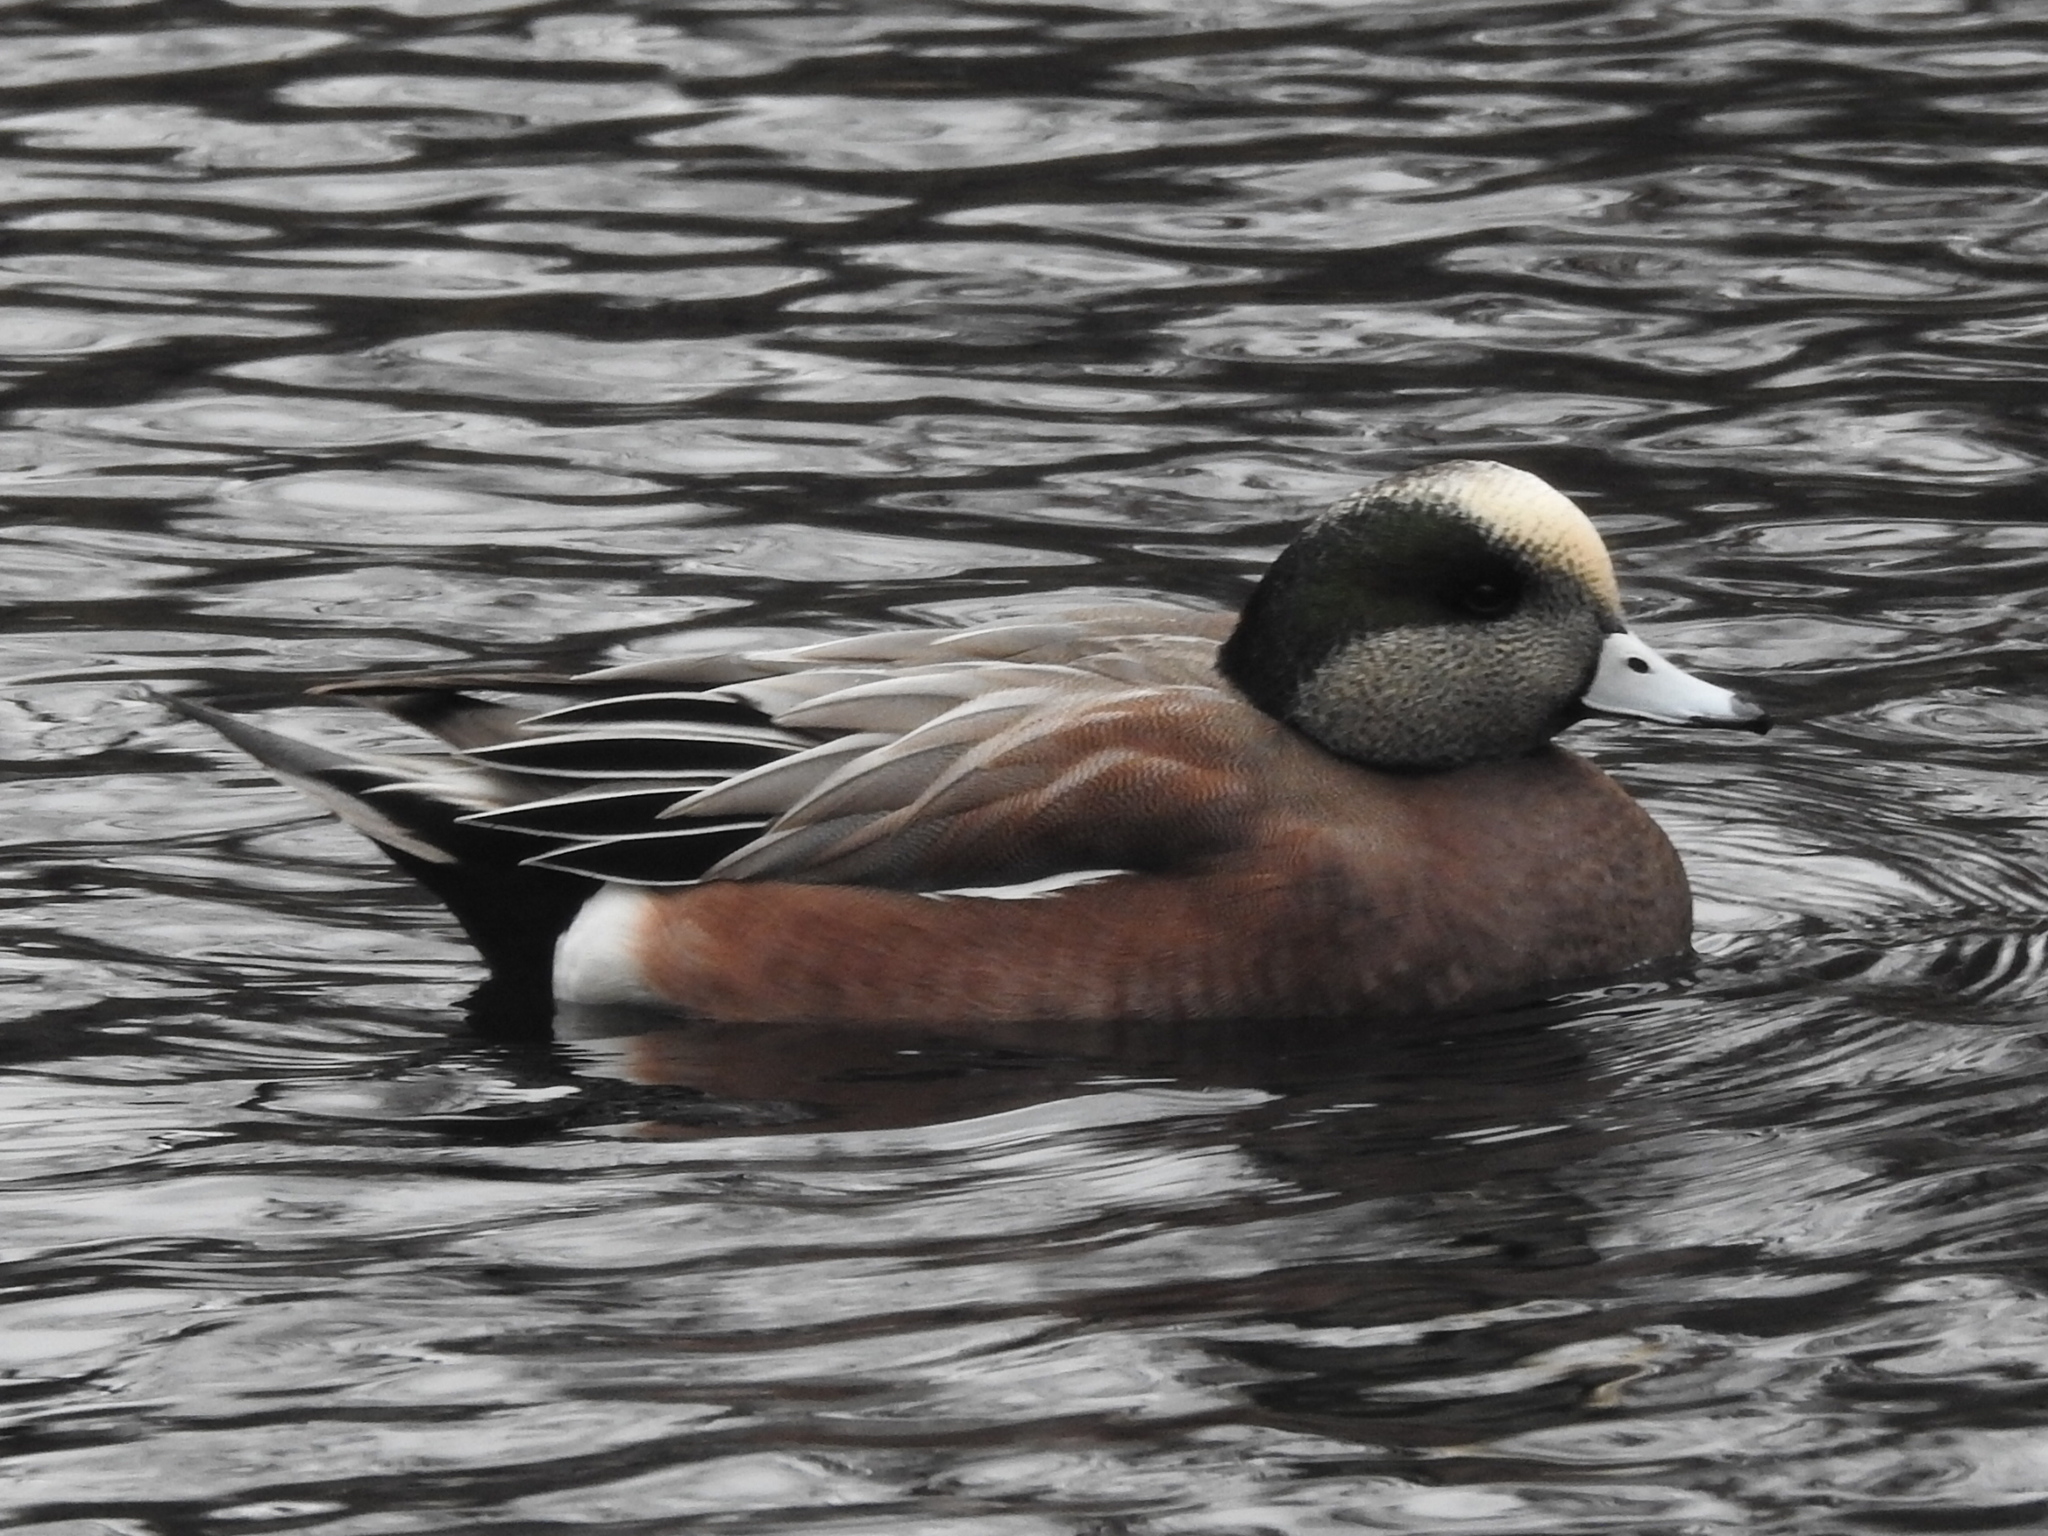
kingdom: Animalia
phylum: Chordata
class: Aves
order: Anseriformes
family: Anatidae
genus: Mareca
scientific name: Mareca americana
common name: American wigeon
